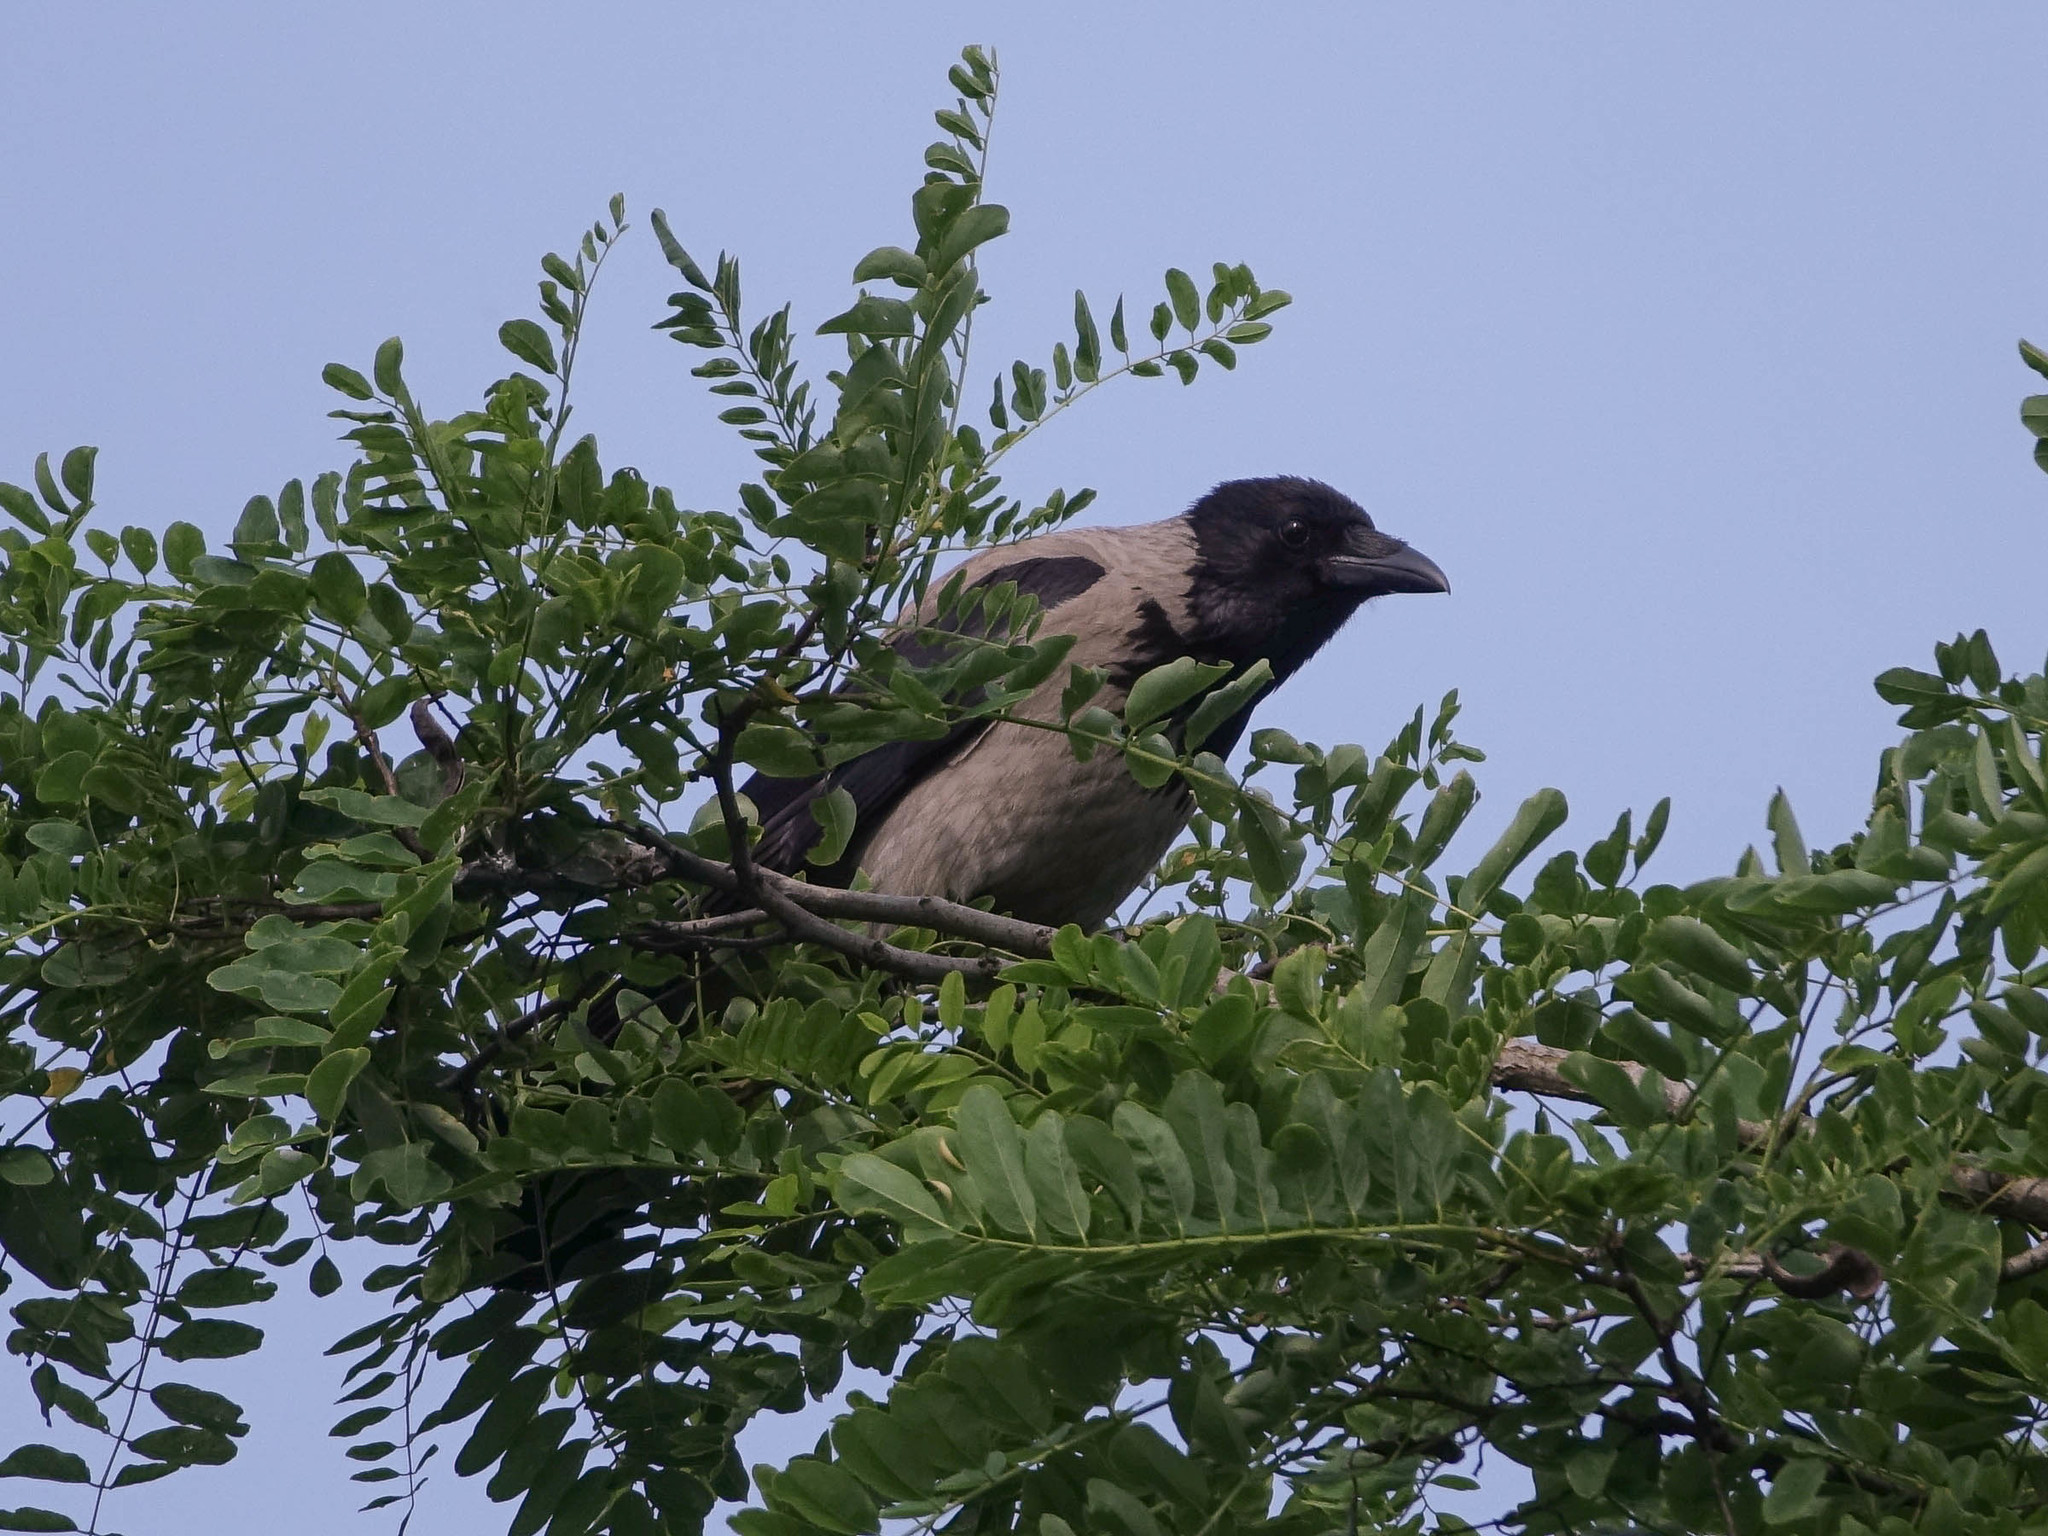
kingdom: Animalia
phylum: Chordata
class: Aves
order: Passeriformes
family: Corvidae
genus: Corvus
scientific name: Corvus cornix
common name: Hooded crow
